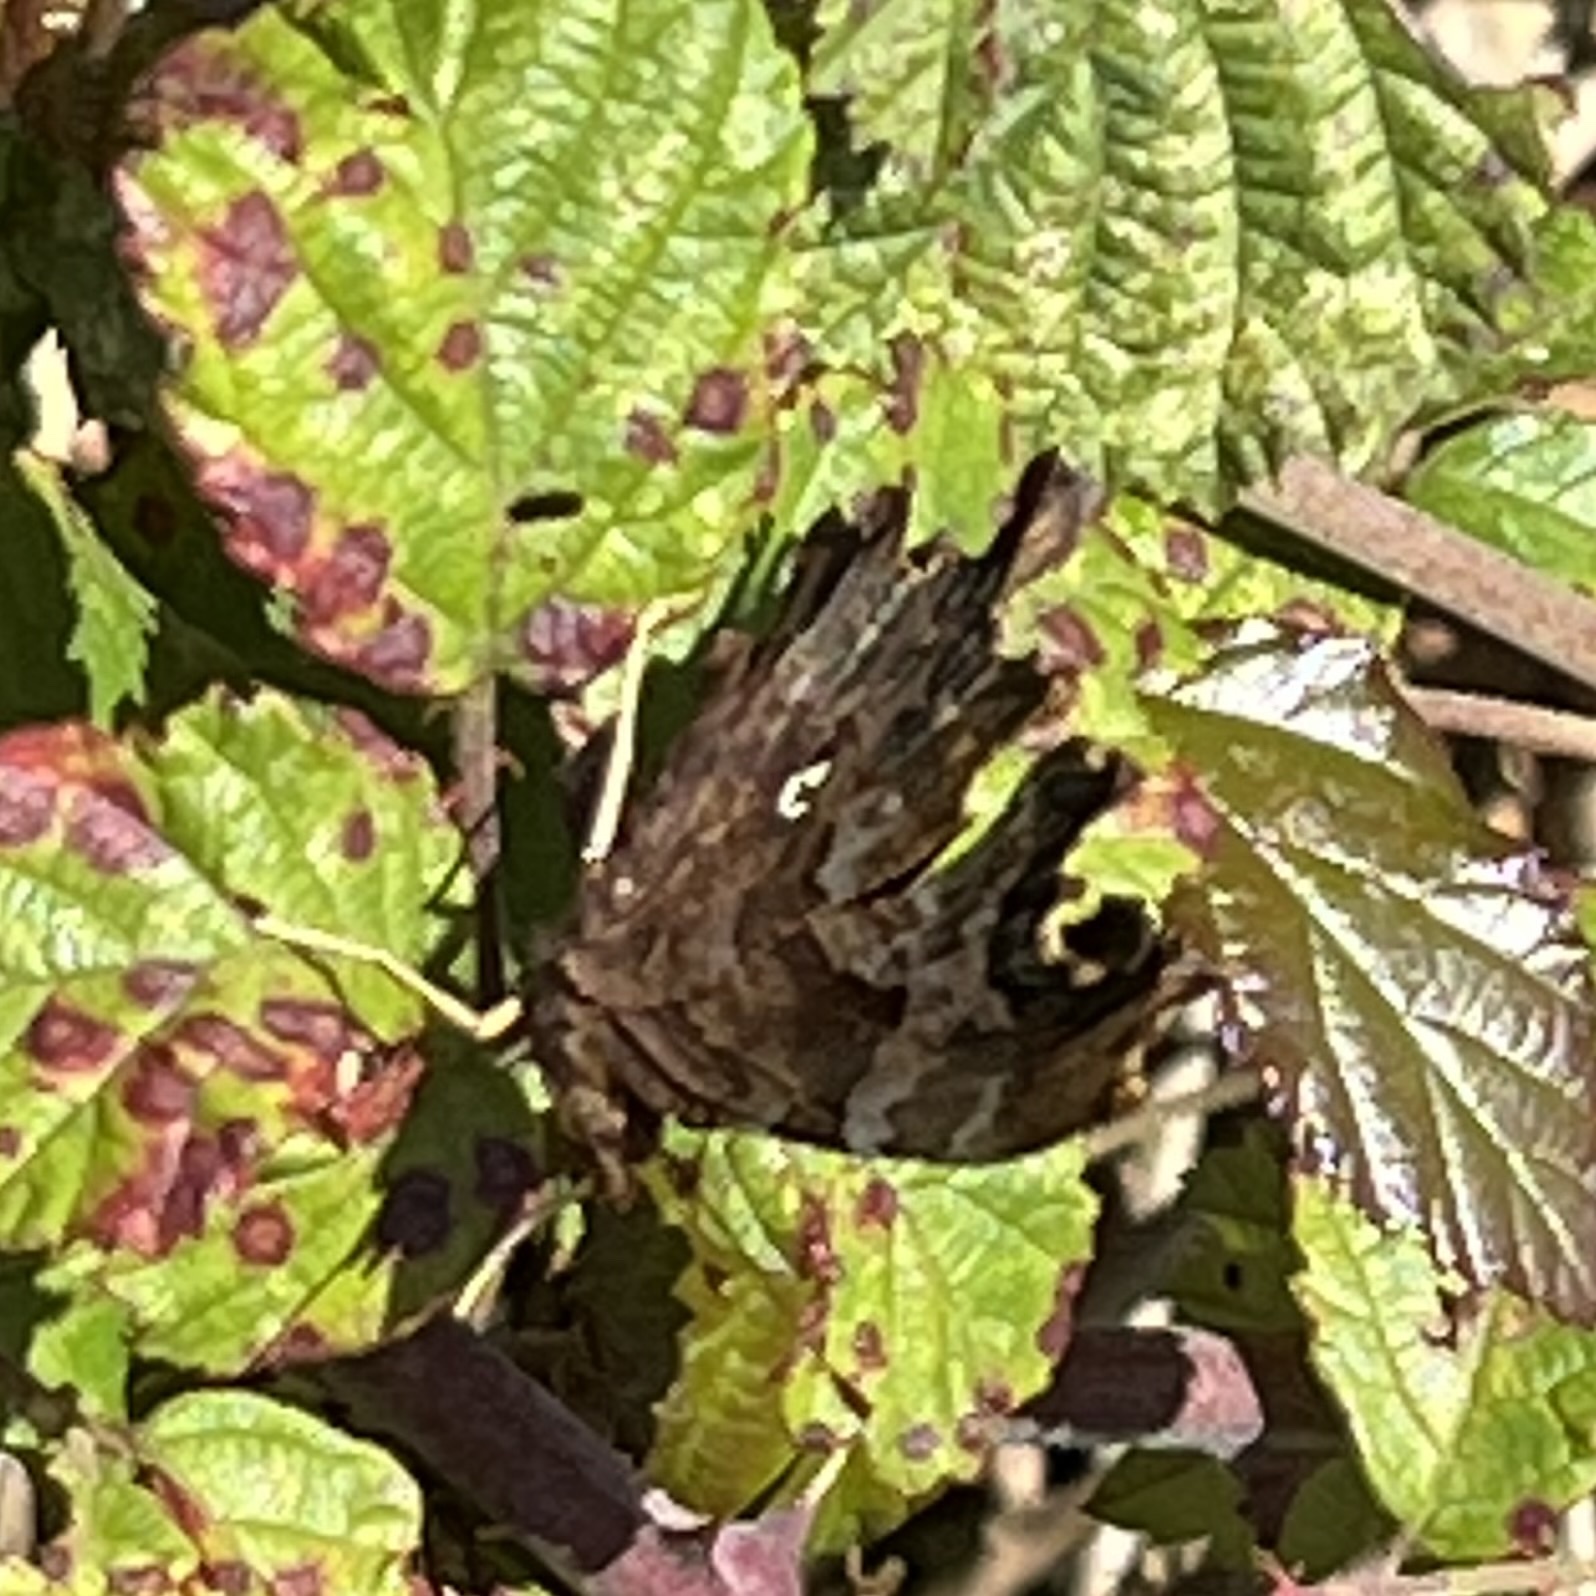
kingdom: Animalia
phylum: Arthropoda
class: Insecta
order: Lepidoptera
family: Nymphalidae
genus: Polygonia
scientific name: Polygonia c-album
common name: Comma
